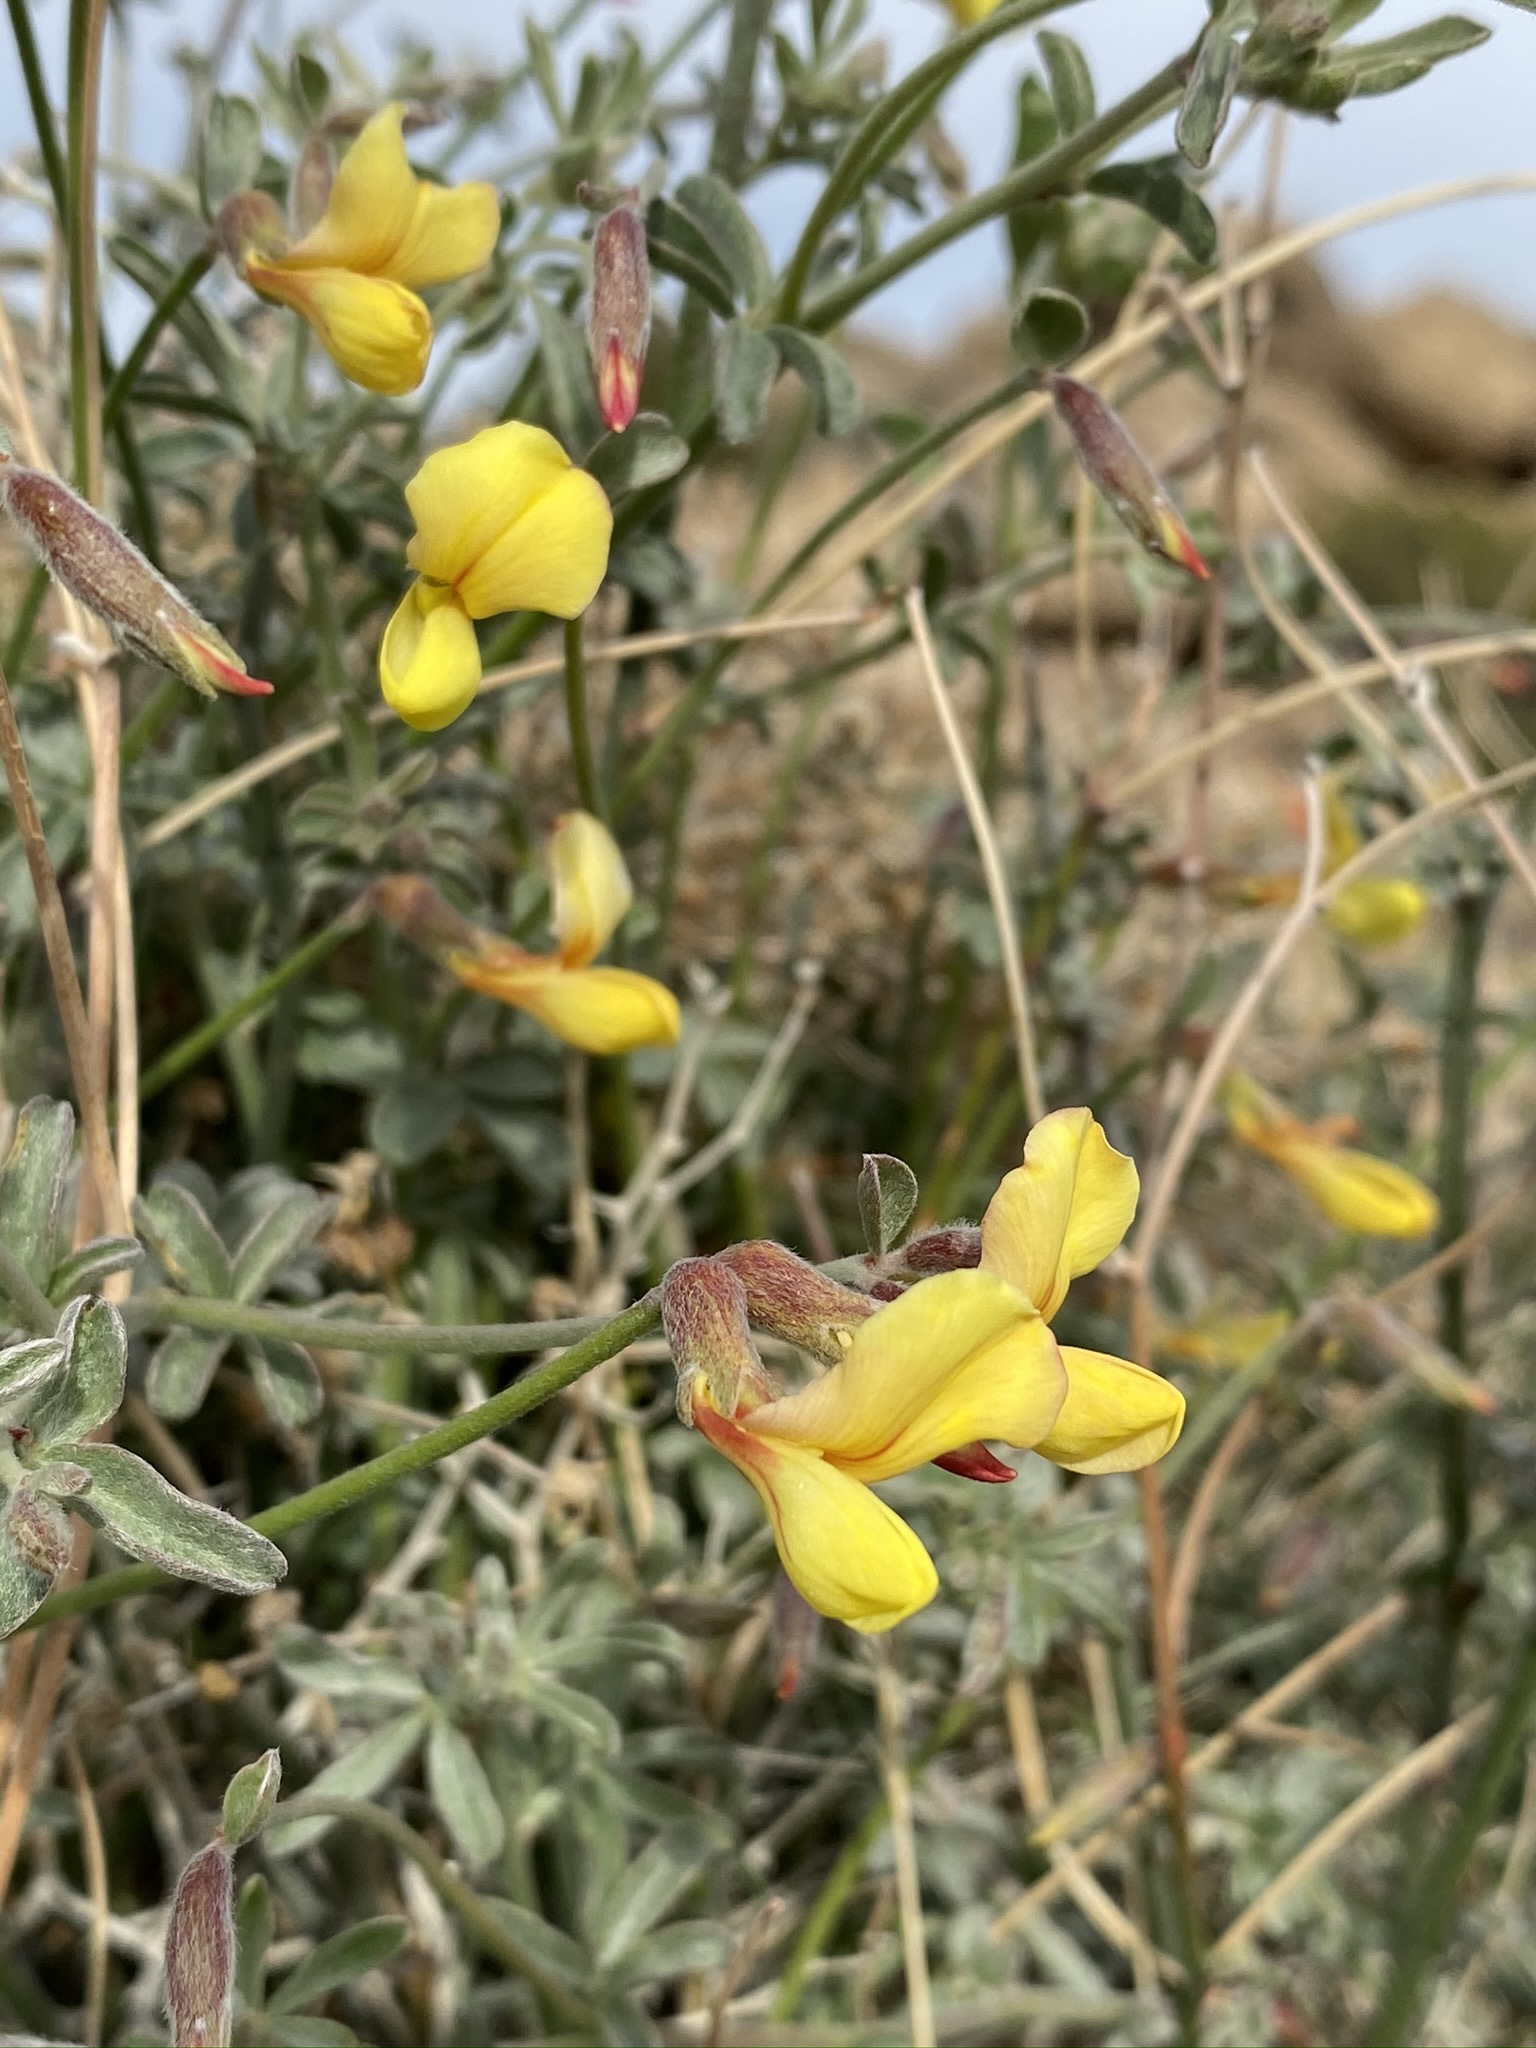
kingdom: Plantae
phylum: Tracheophyta
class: Magnoliopsida
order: Fabales
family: Fabaceae
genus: Acmispon
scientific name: Acmispon rigidus
